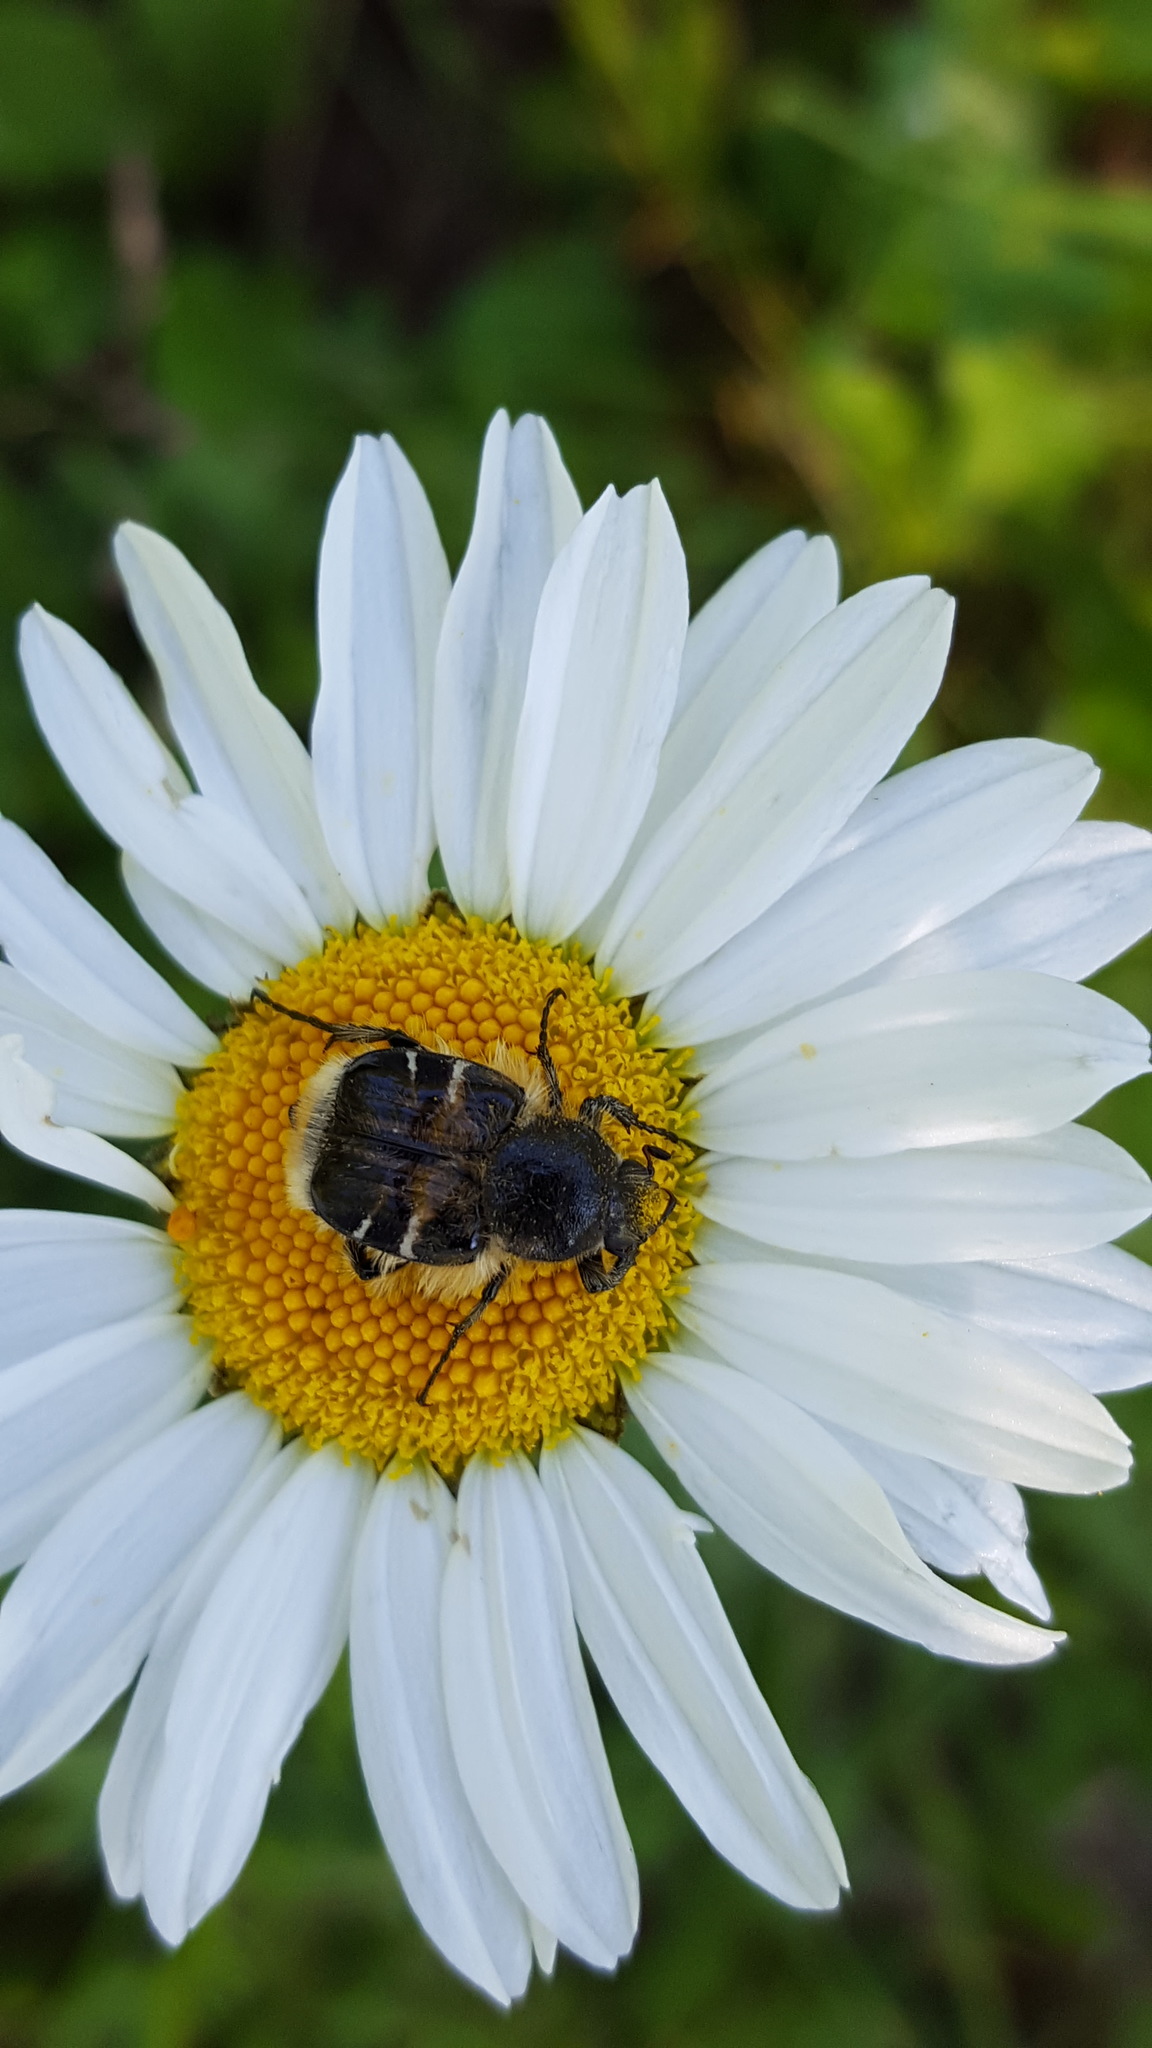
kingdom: Animalia
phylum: Arthropoda
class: Insecta
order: Coleoptera
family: Scarabaeidae
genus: Trichiotinus
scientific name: Trichiotinus assimilis
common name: Bee-mimic beetle
